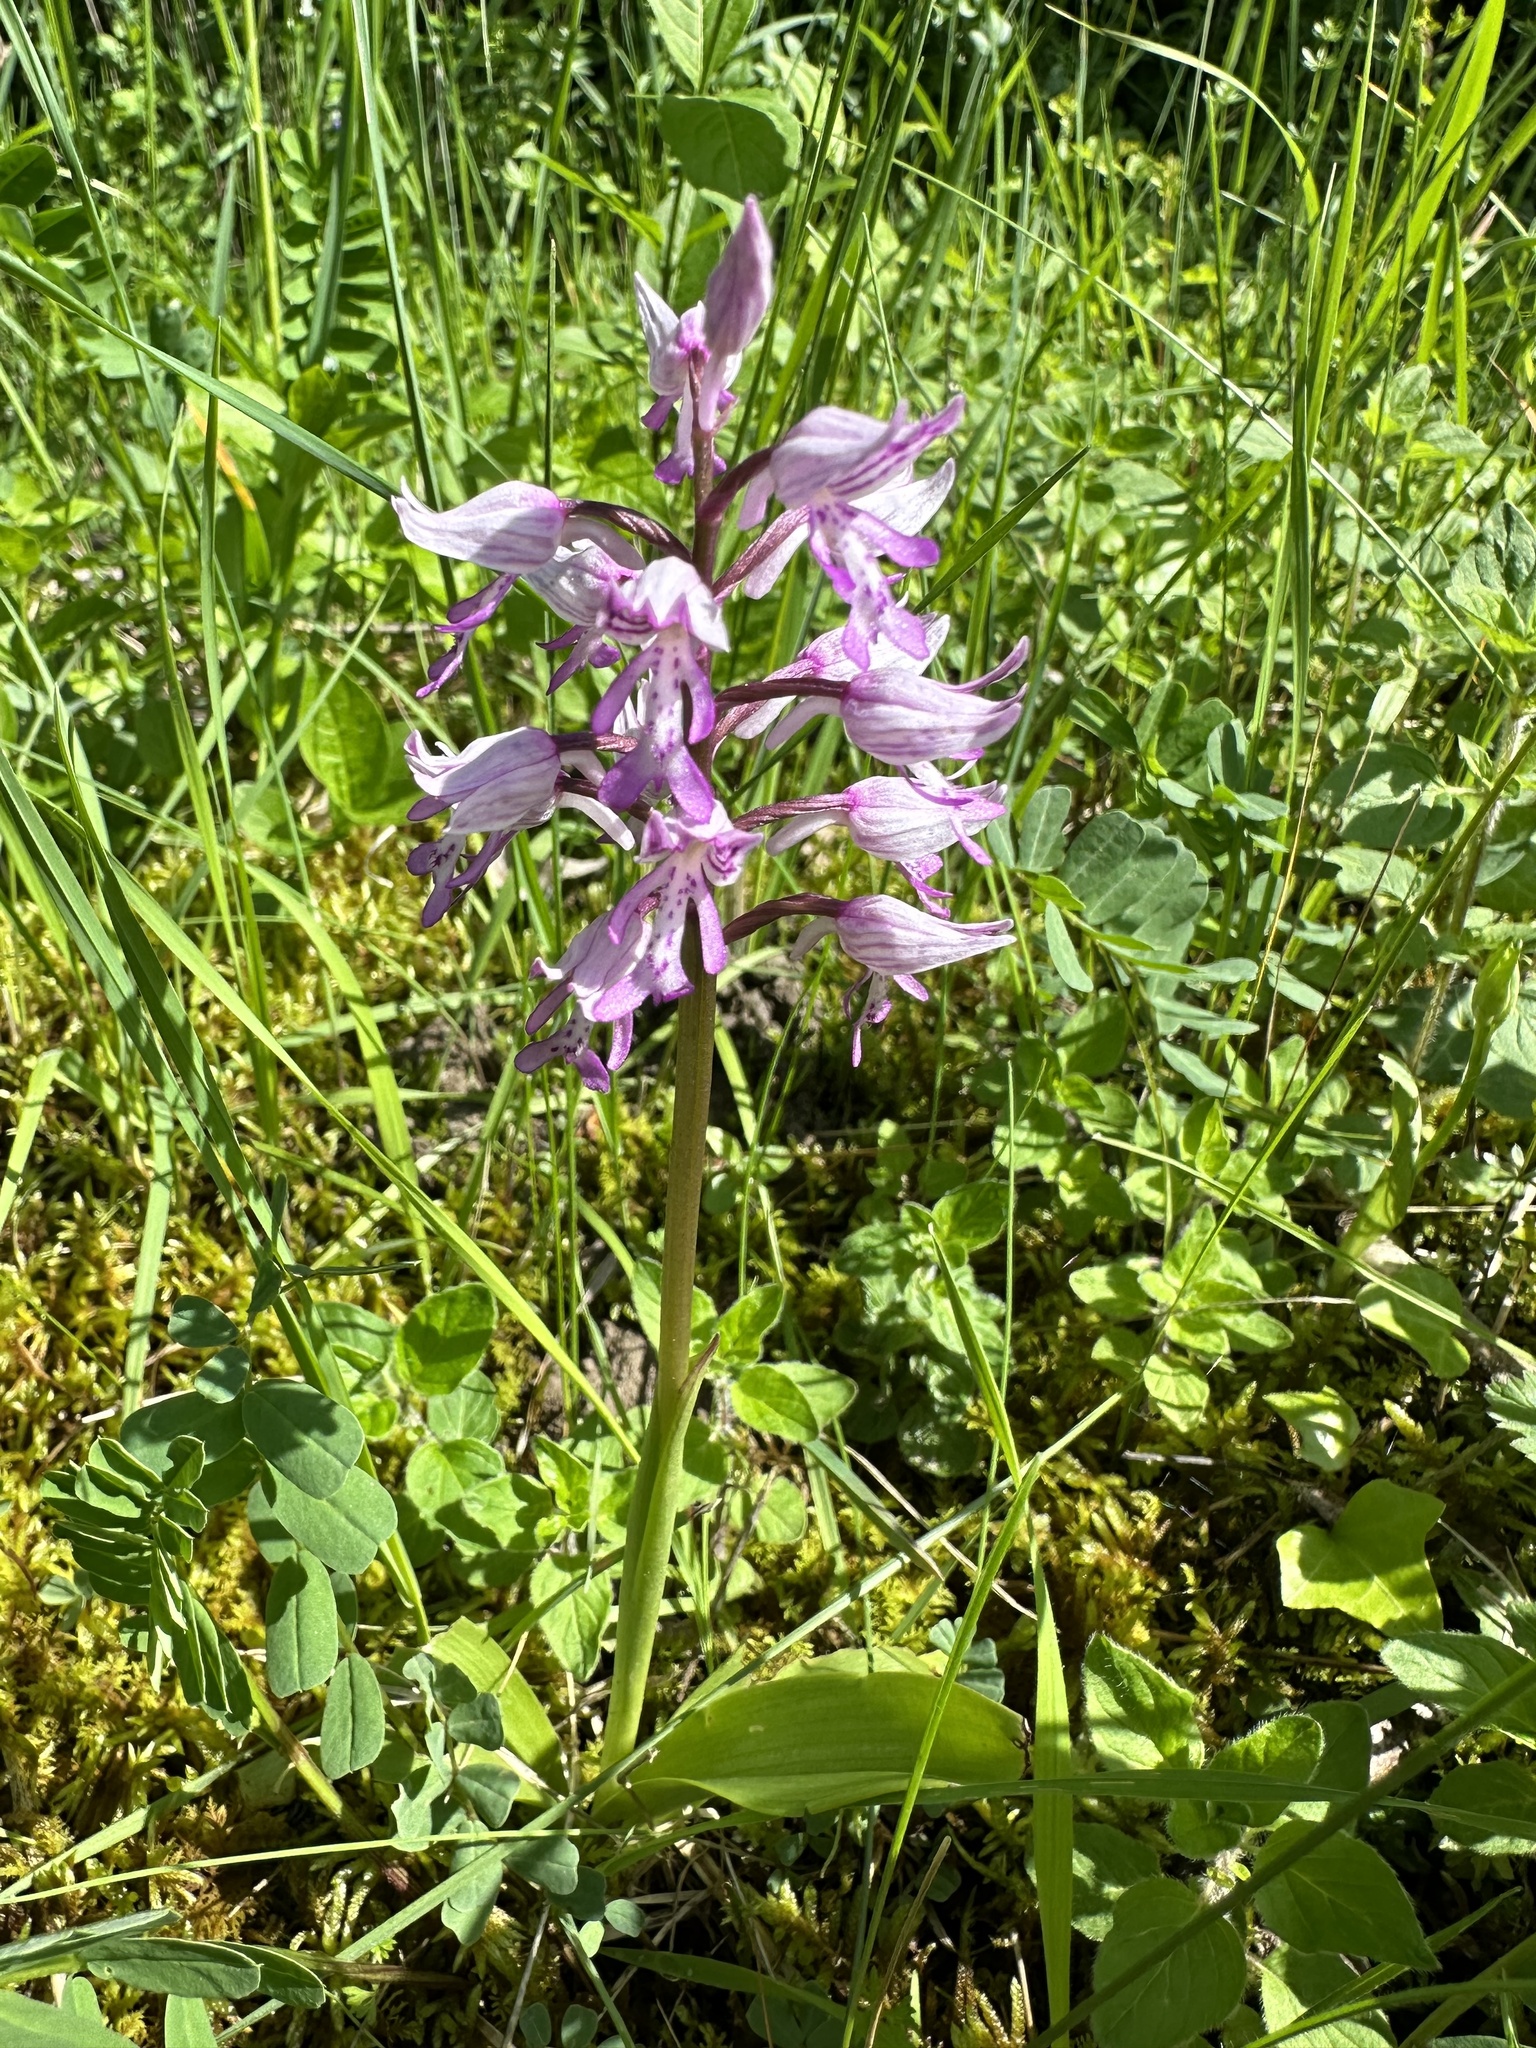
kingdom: Plantae
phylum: Tracheophyta
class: Liliopsida
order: Asparagales
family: Orchidaceae
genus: Orchis
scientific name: Orchis militaris
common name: Military orchid
